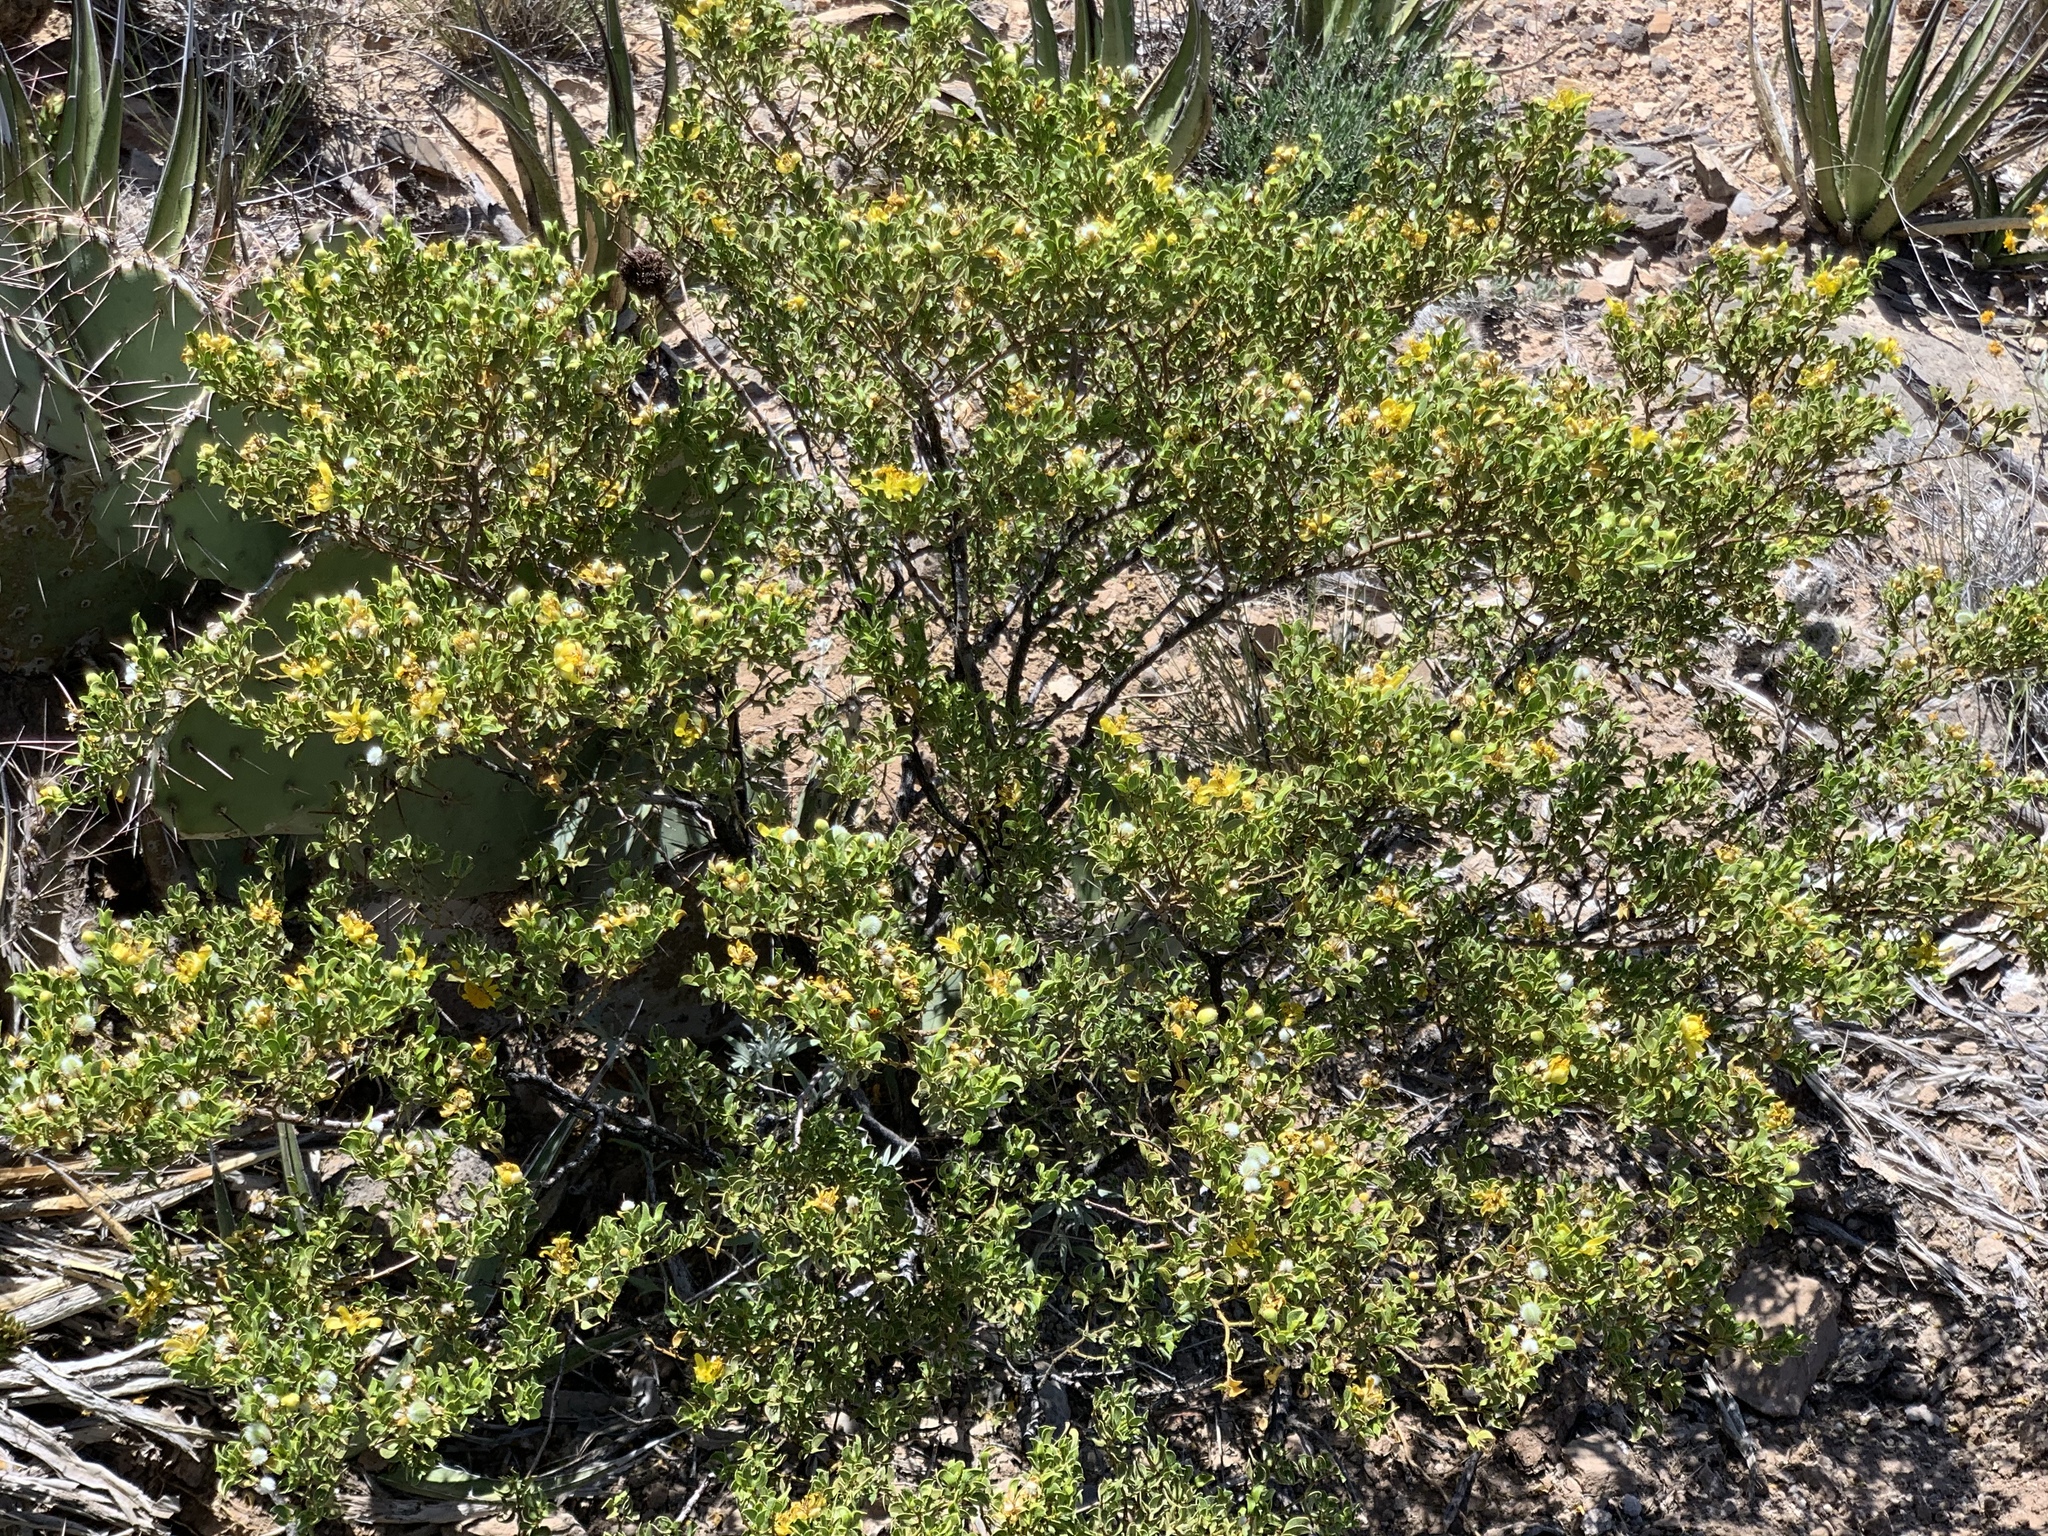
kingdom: Plantae
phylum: Tracheophyta
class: Magnoliopsida
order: Zygophyllales
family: Zygophyllaceae
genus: Larrea
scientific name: Larrea tridentata
